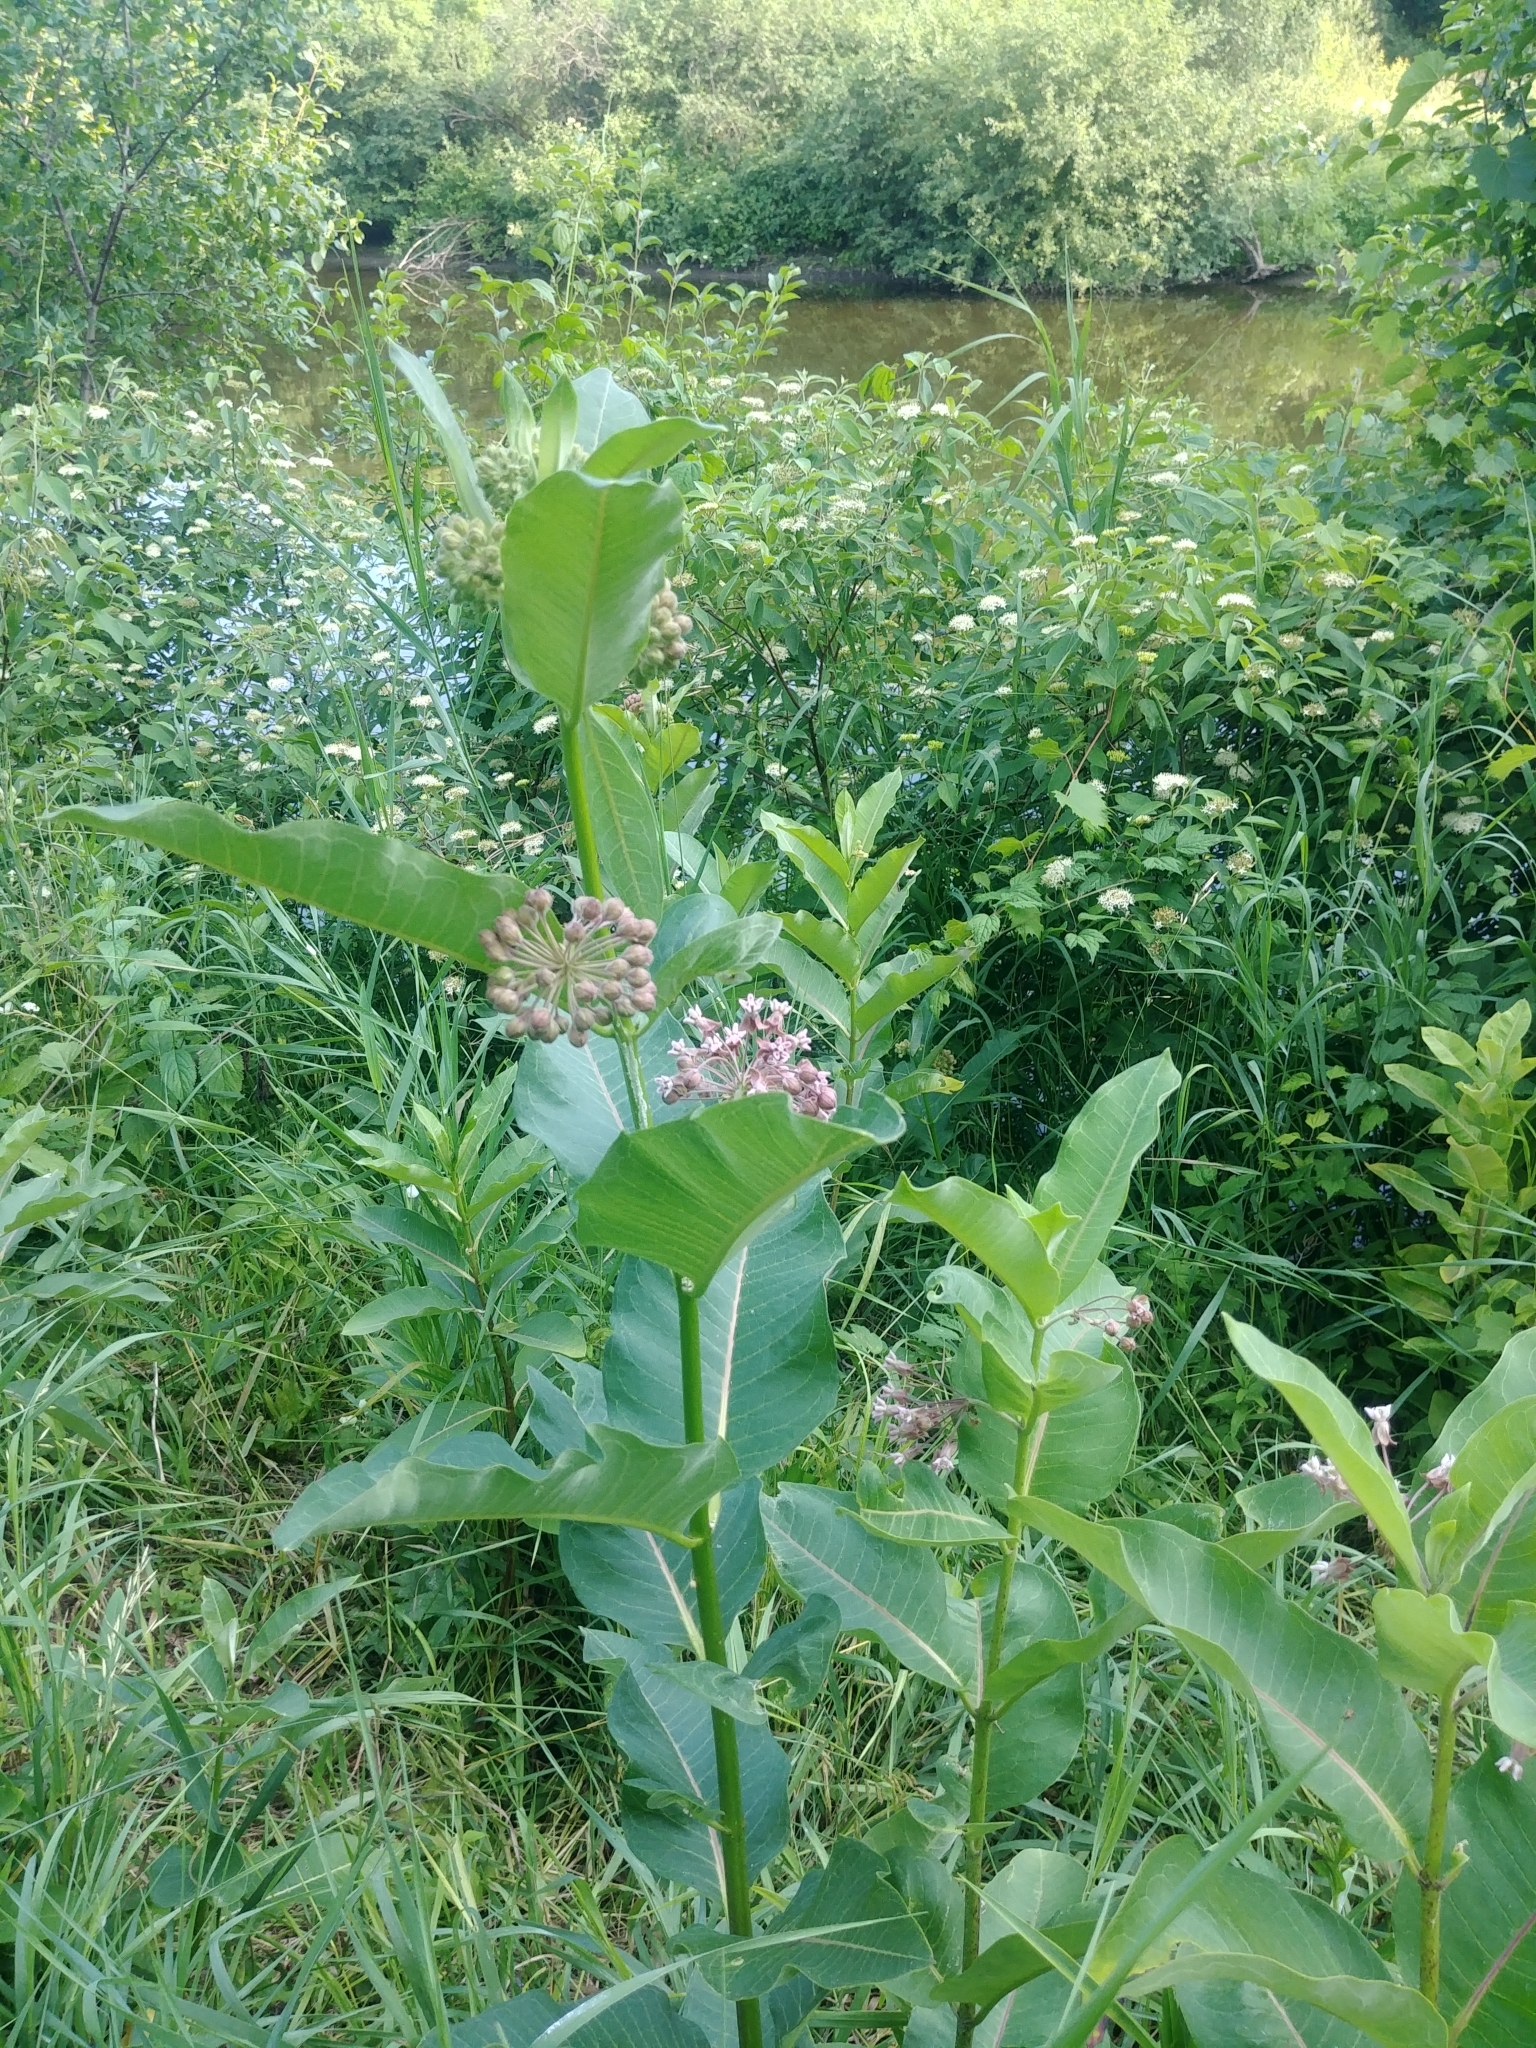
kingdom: Plantae
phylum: Tracheophyta
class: Magnoliopsida
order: Gentianales
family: Apocynaceae
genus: Asclepias
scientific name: Asclepias syriaca
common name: Common milkweed
